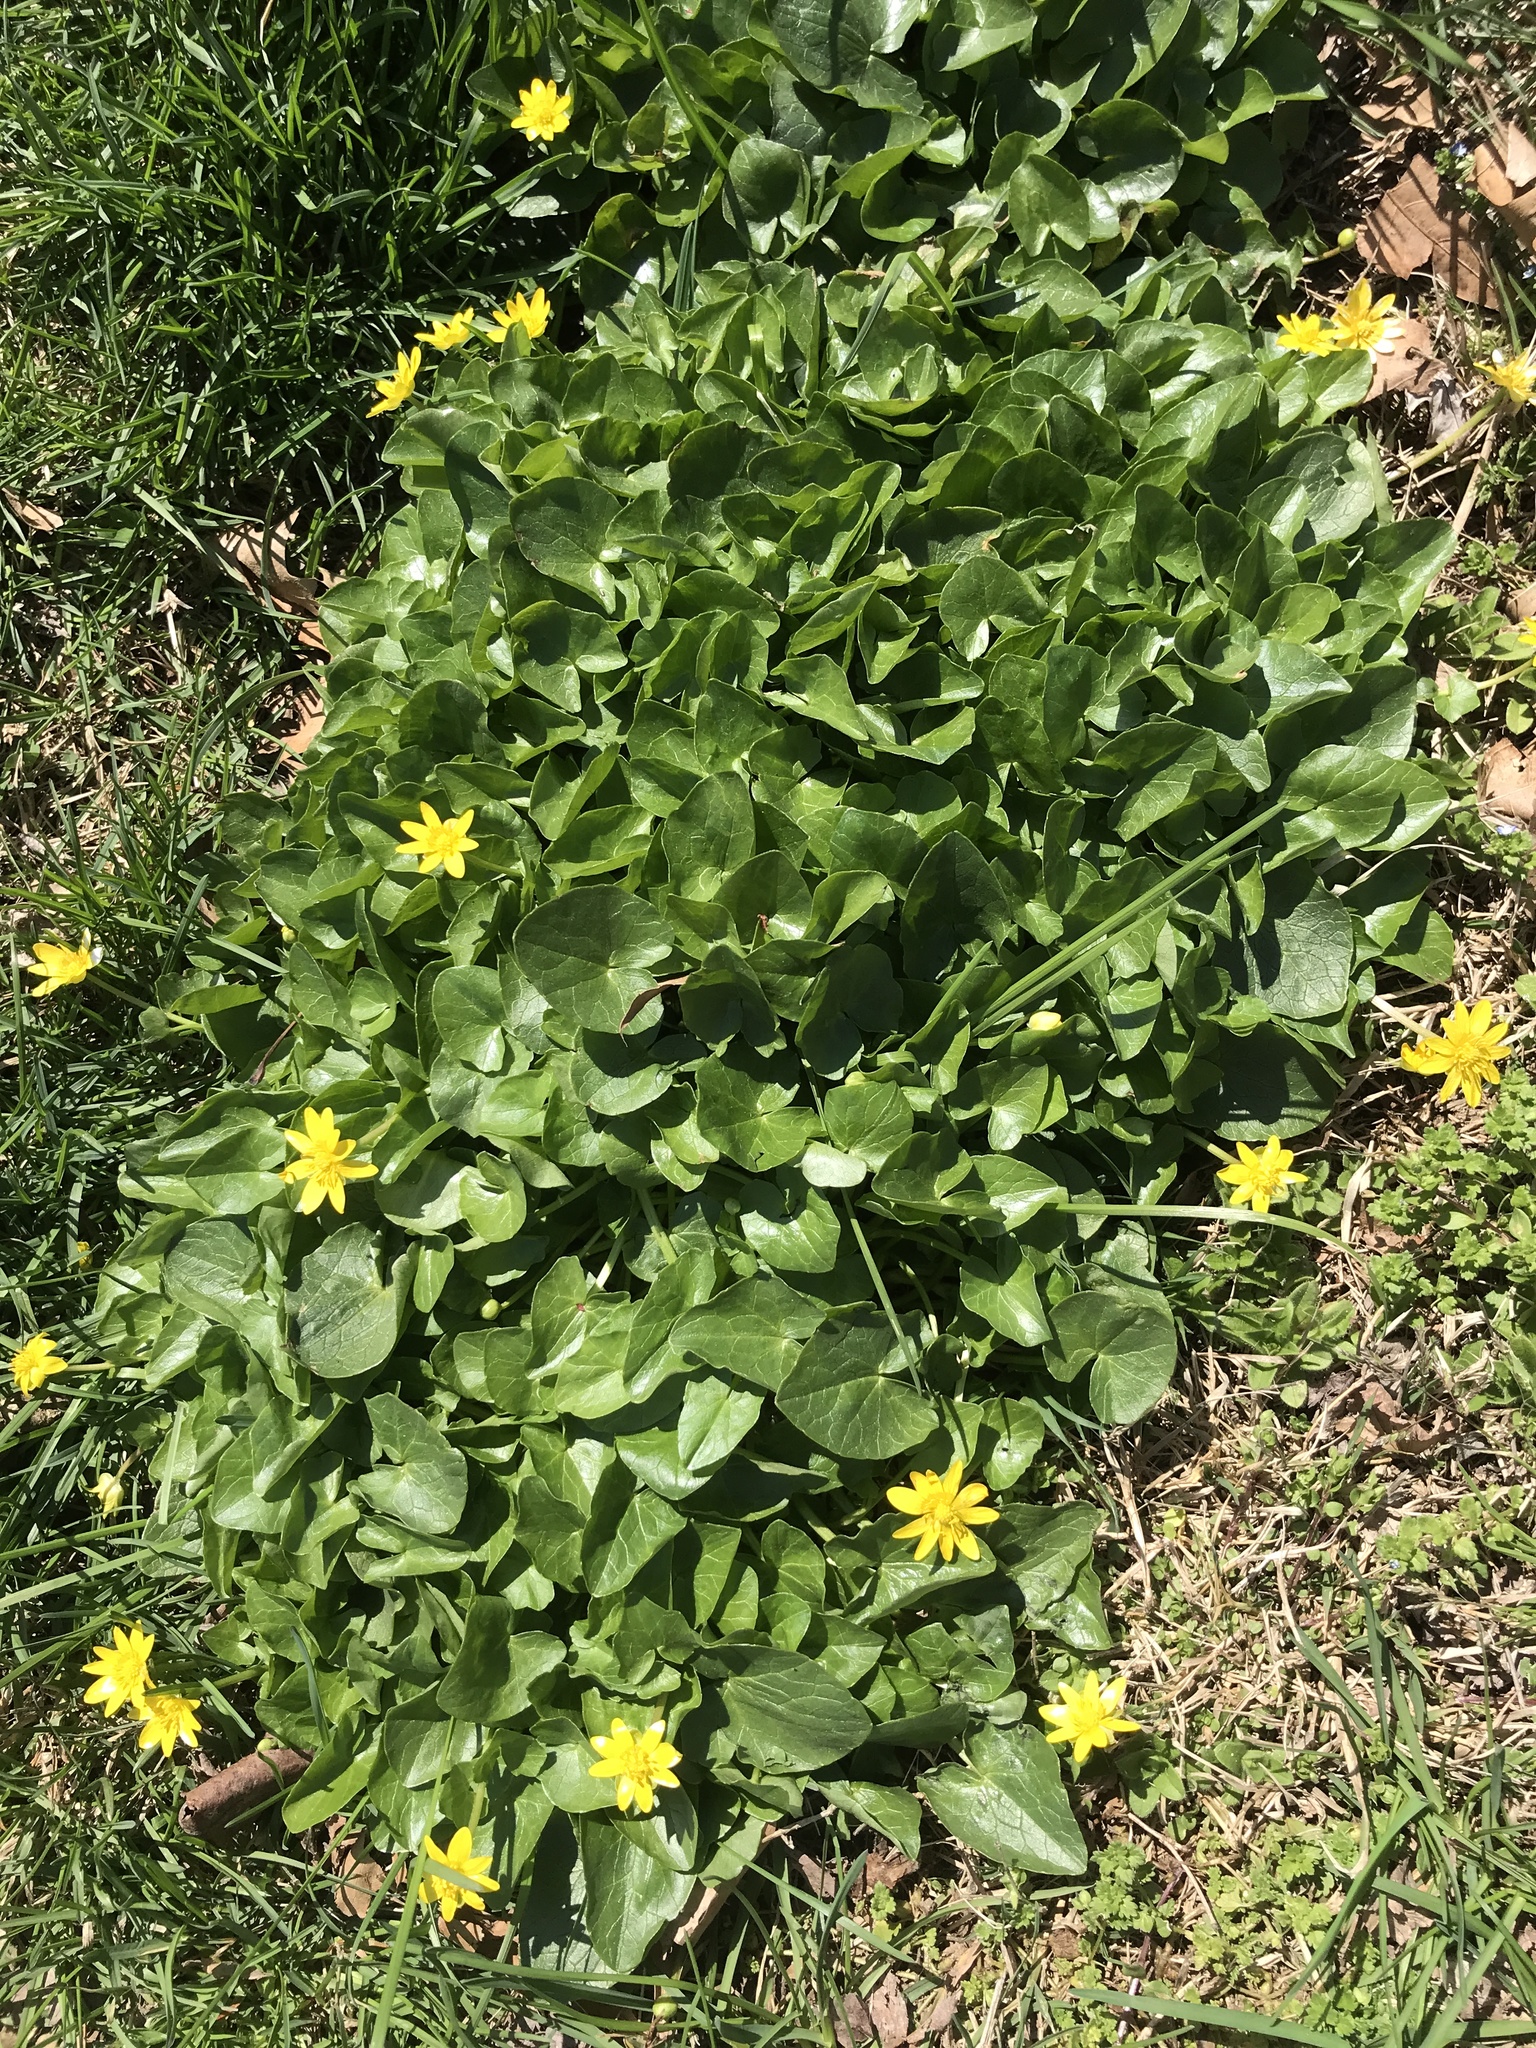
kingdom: Plantae
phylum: Tracheophyta
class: Magnoliopsida
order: Ranunculales
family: Ranunculaceae
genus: Ficaria
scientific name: Ficaria verna
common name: Lesser celandine
